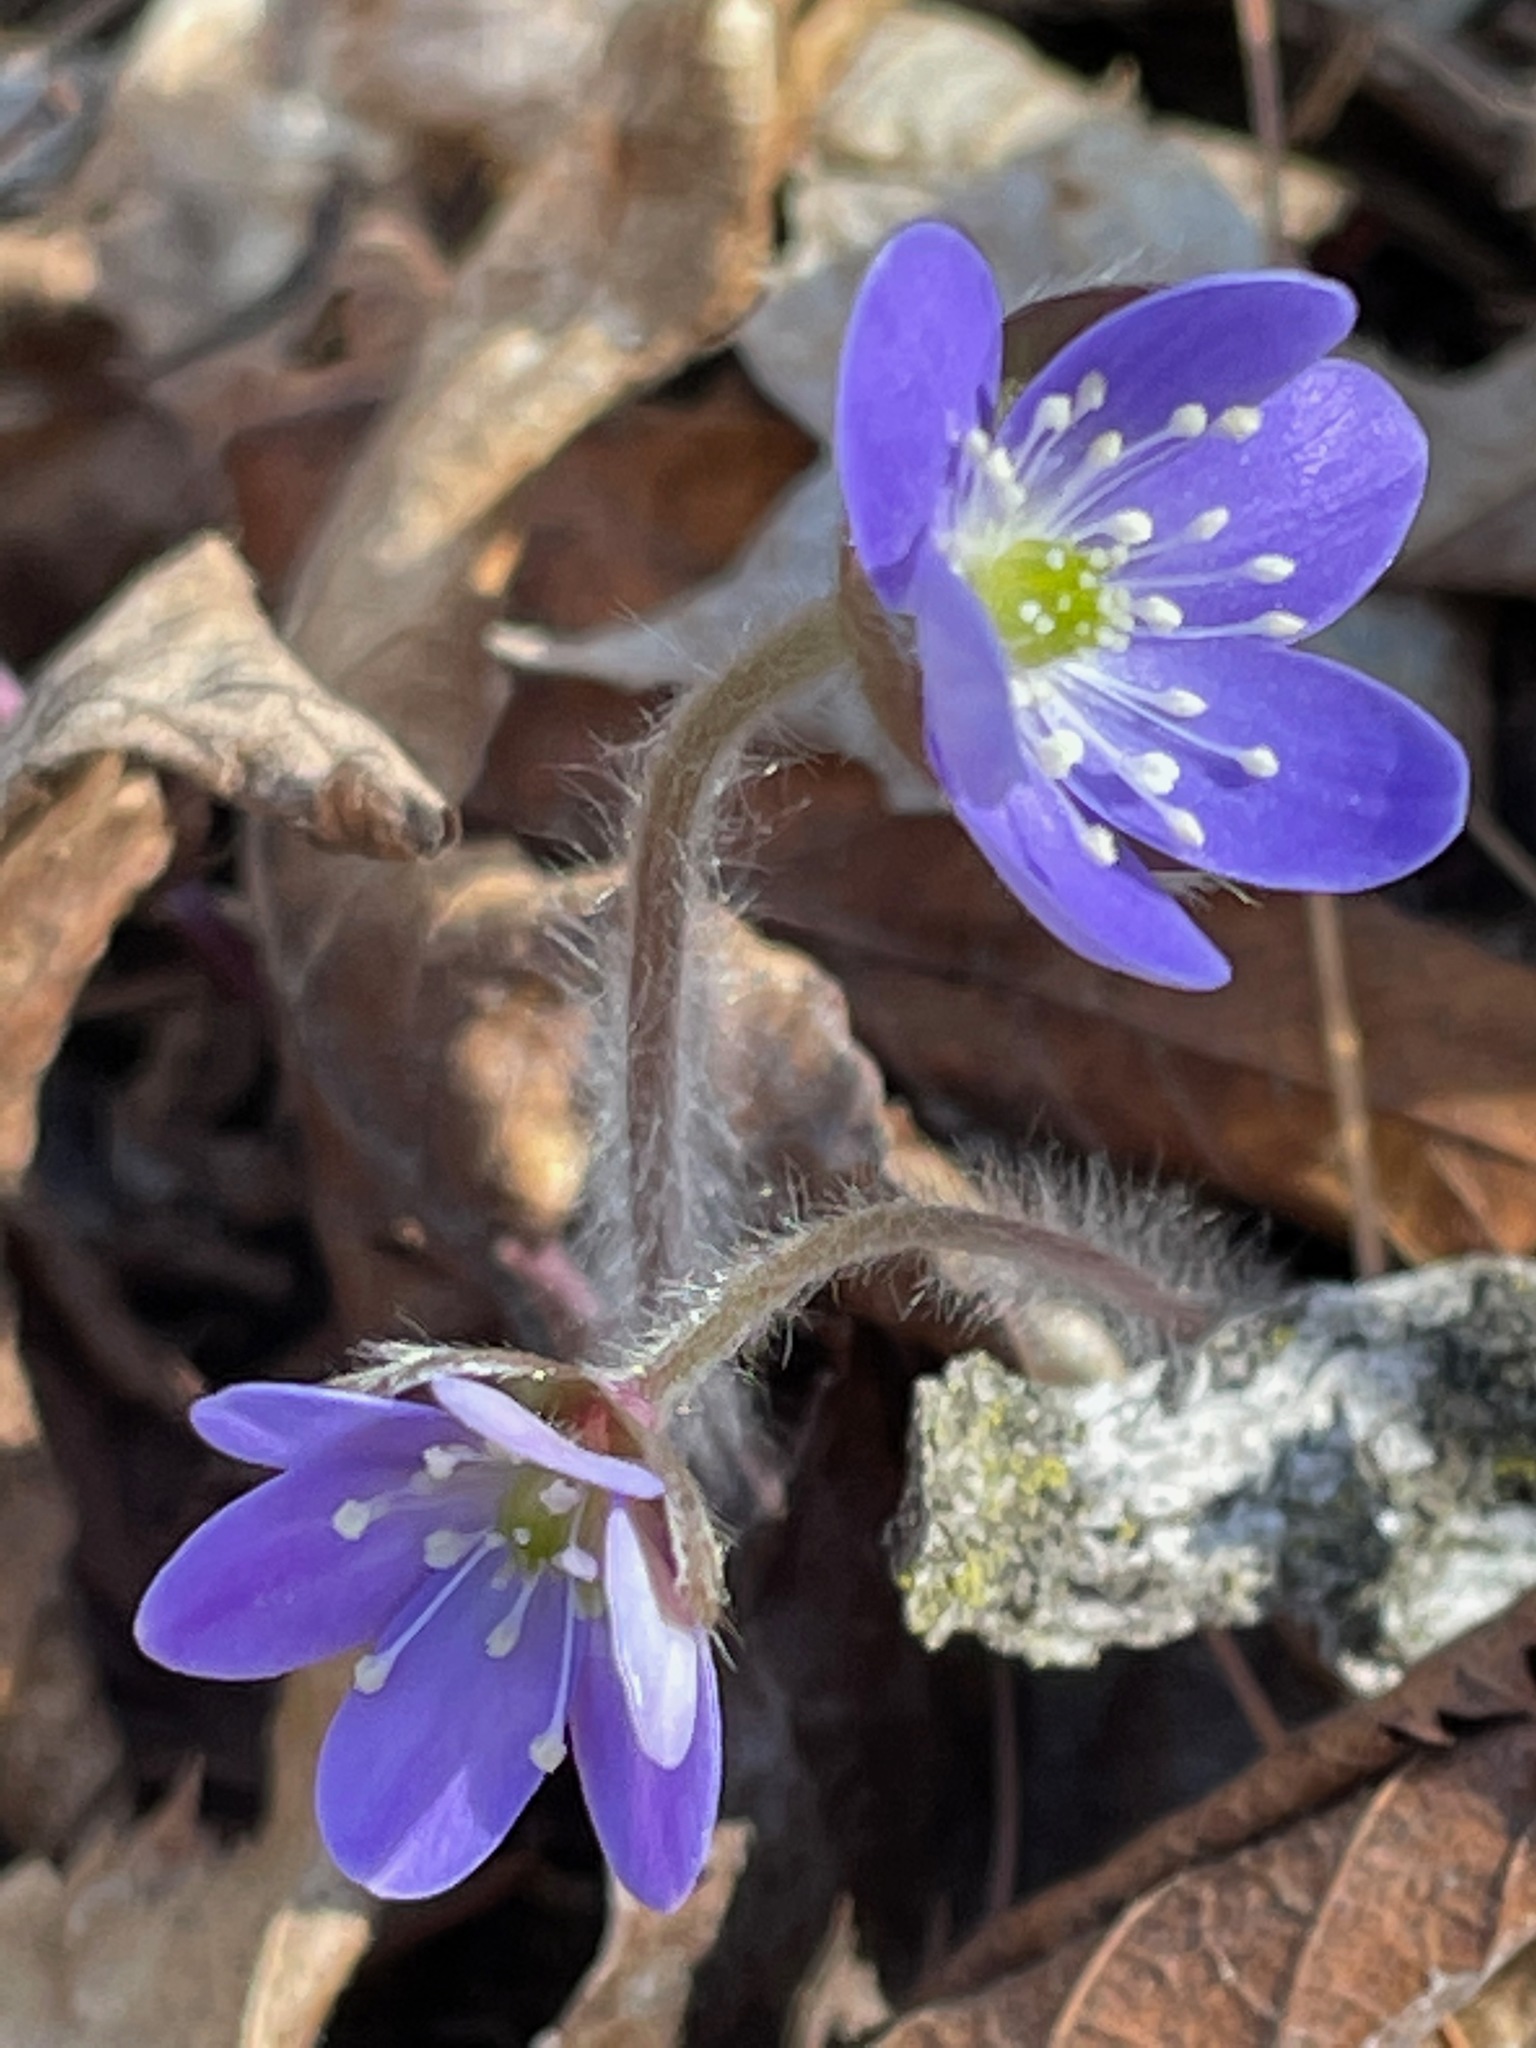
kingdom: Plantae
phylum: Tracheophyta
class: Magnoliopsida
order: Ranunculales
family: Ranunculaceae
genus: Hepatica
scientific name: Hepatica acutiloba
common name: Sharp-lobed hepatica
